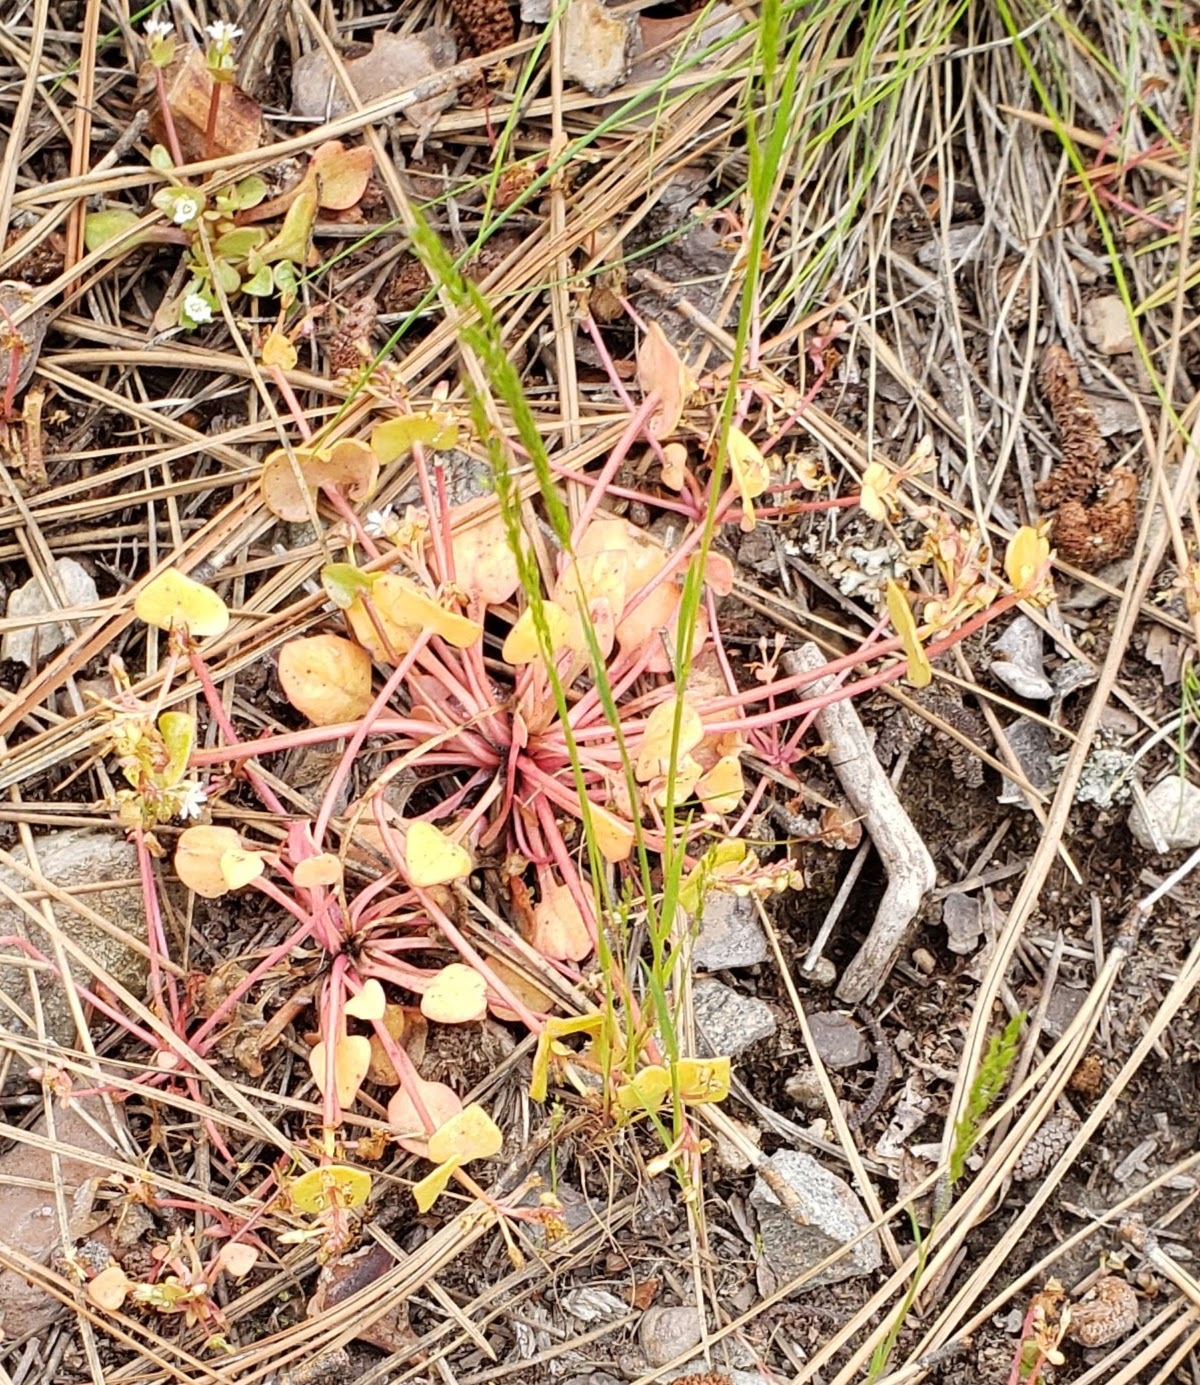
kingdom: Plantae
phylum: Tracheophyta
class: Magnoliopsida
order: Caryophyllales
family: Montiaceae
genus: Claytonia
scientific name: Claytonia rubra
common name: Erubescent miner's-lettuce
